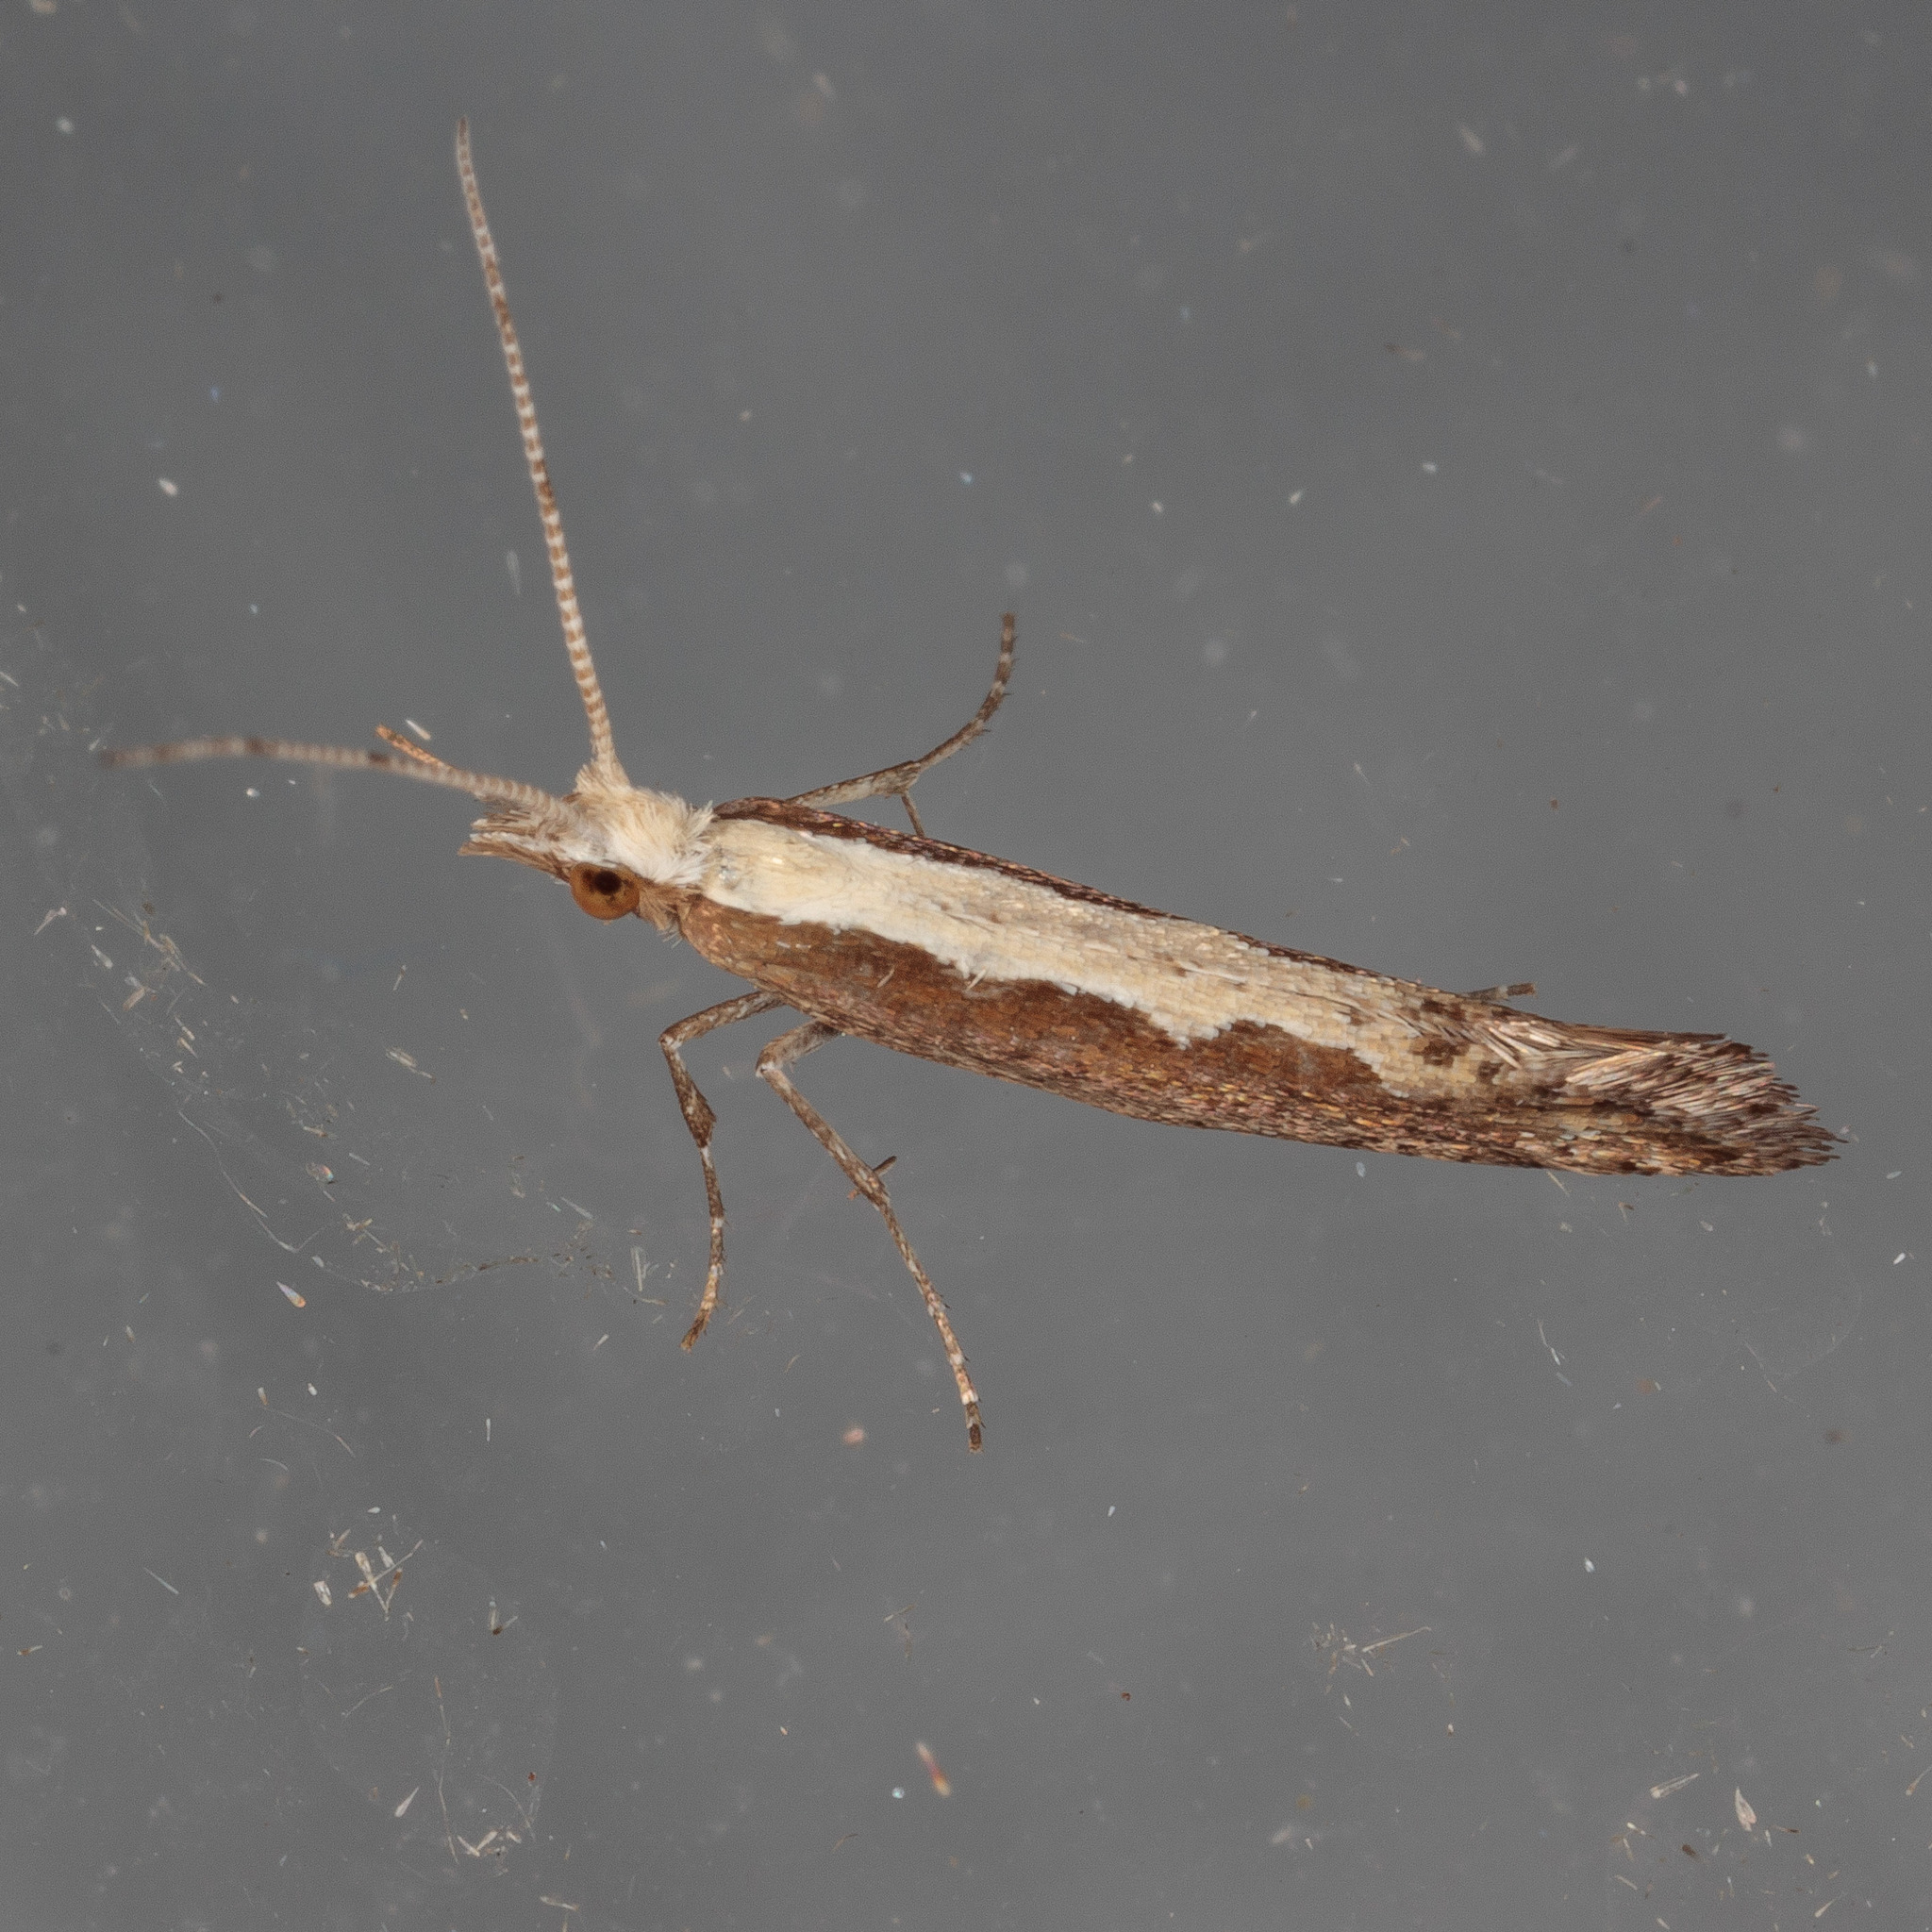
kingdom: Animalia
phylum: Arthropoda
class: Insecta
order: Lepidoptera
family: Plutellidae
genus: Plutella
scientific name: Plutella xylostella
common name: Diamond-back moth
